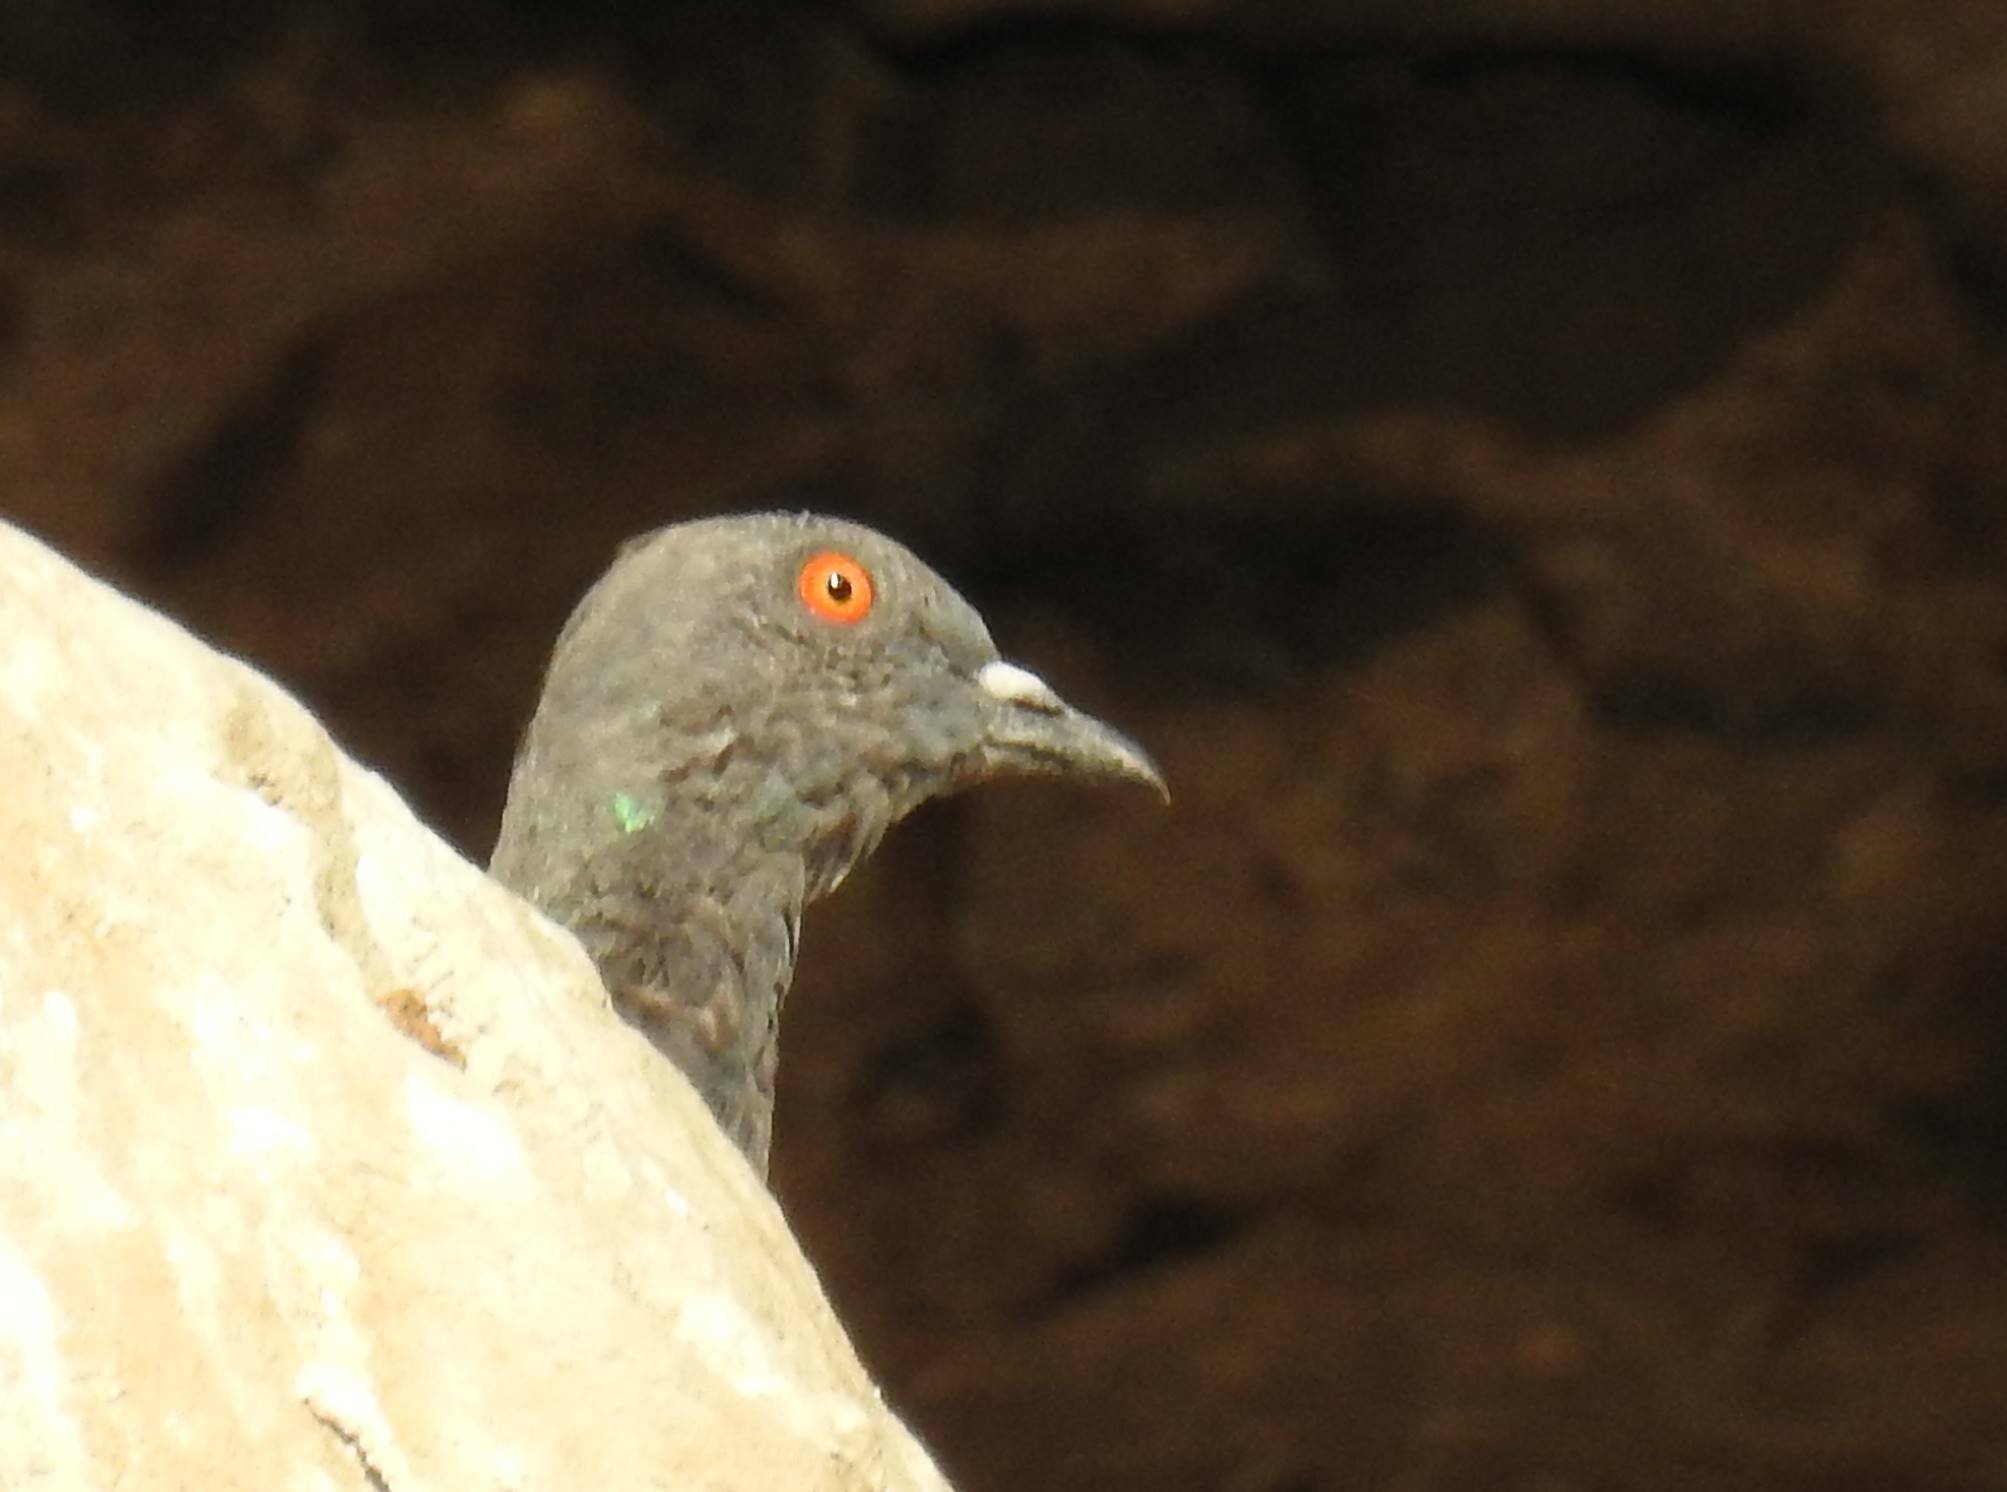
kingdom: Animalia
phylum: Chordata
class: Aves
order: Columbiformes
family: Columbidae
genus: Columba
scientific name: Columba livia
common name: Rock pigeon
